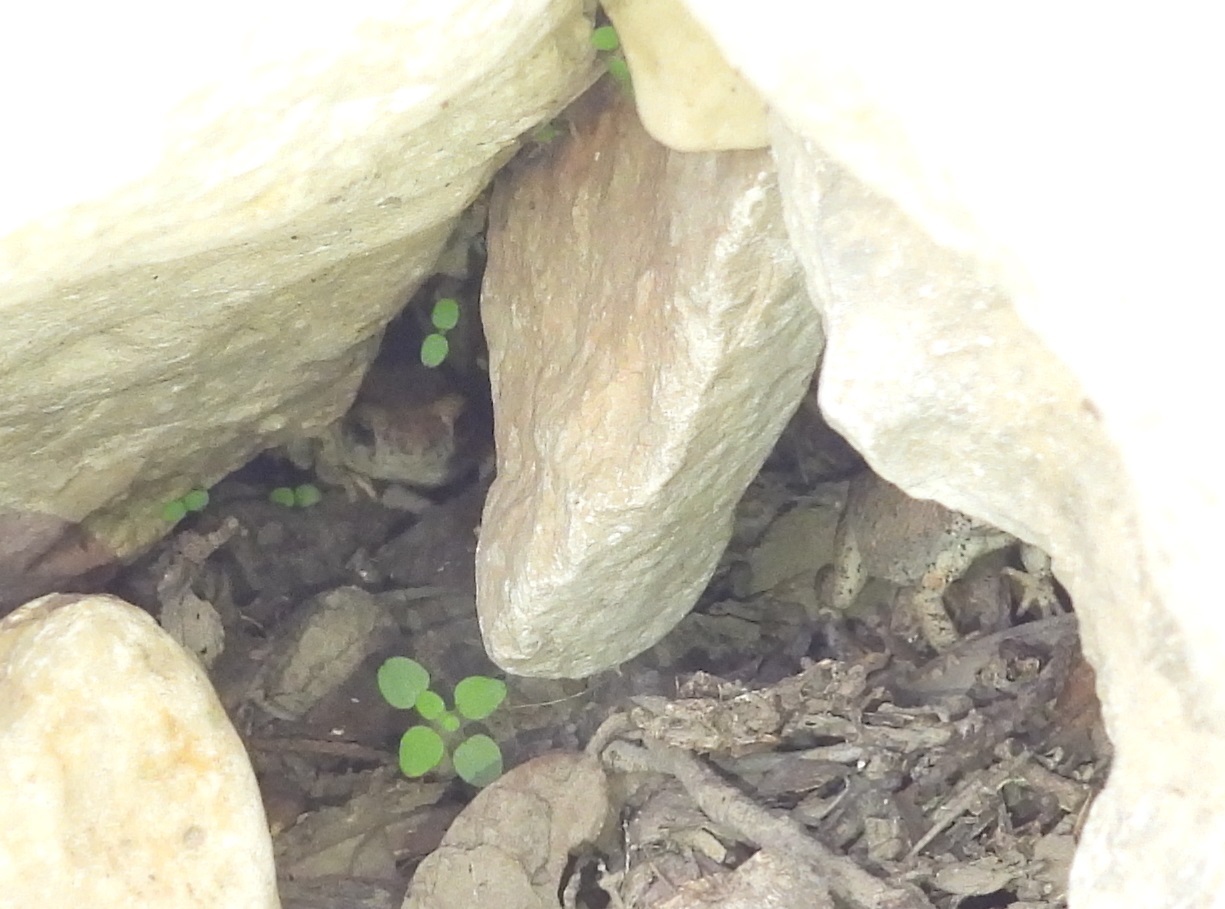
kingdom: Animalia
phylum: Chordata
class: Amphibia
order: Anura
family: Bufonidae
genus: Anaxyrus
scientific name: Anaxyrus punctatus
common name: Red-spotted toad
